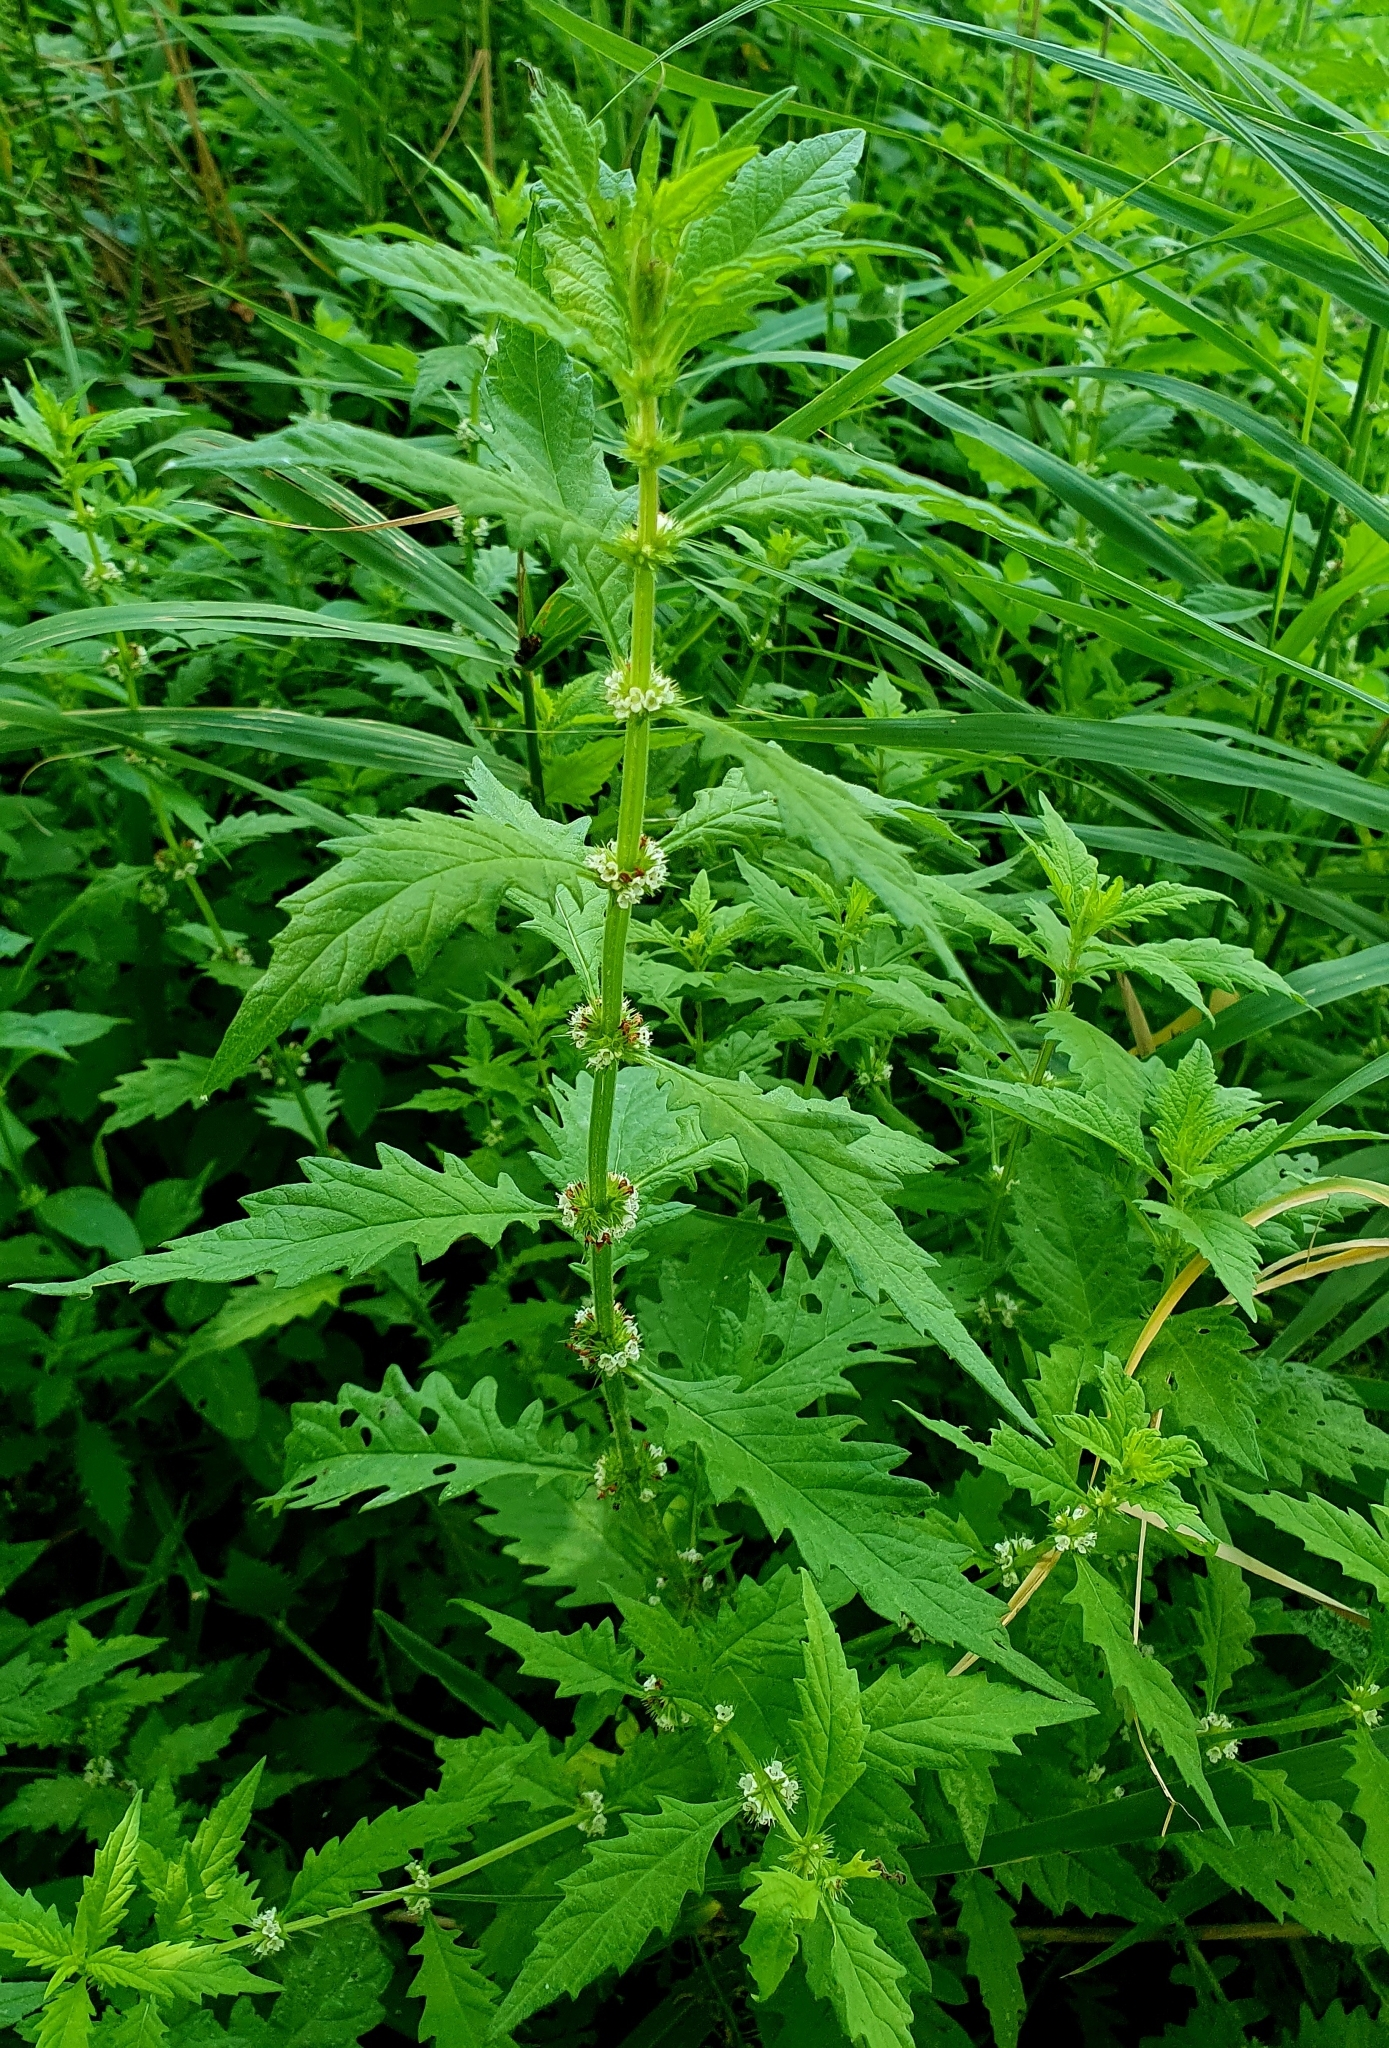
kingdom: Plantae
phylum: Tracheophyta
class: Magnoliopsida
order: Lamiales
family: Lamiaceae
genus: Lycopus
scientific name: Lycopus europaeus
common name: European bugleweed
